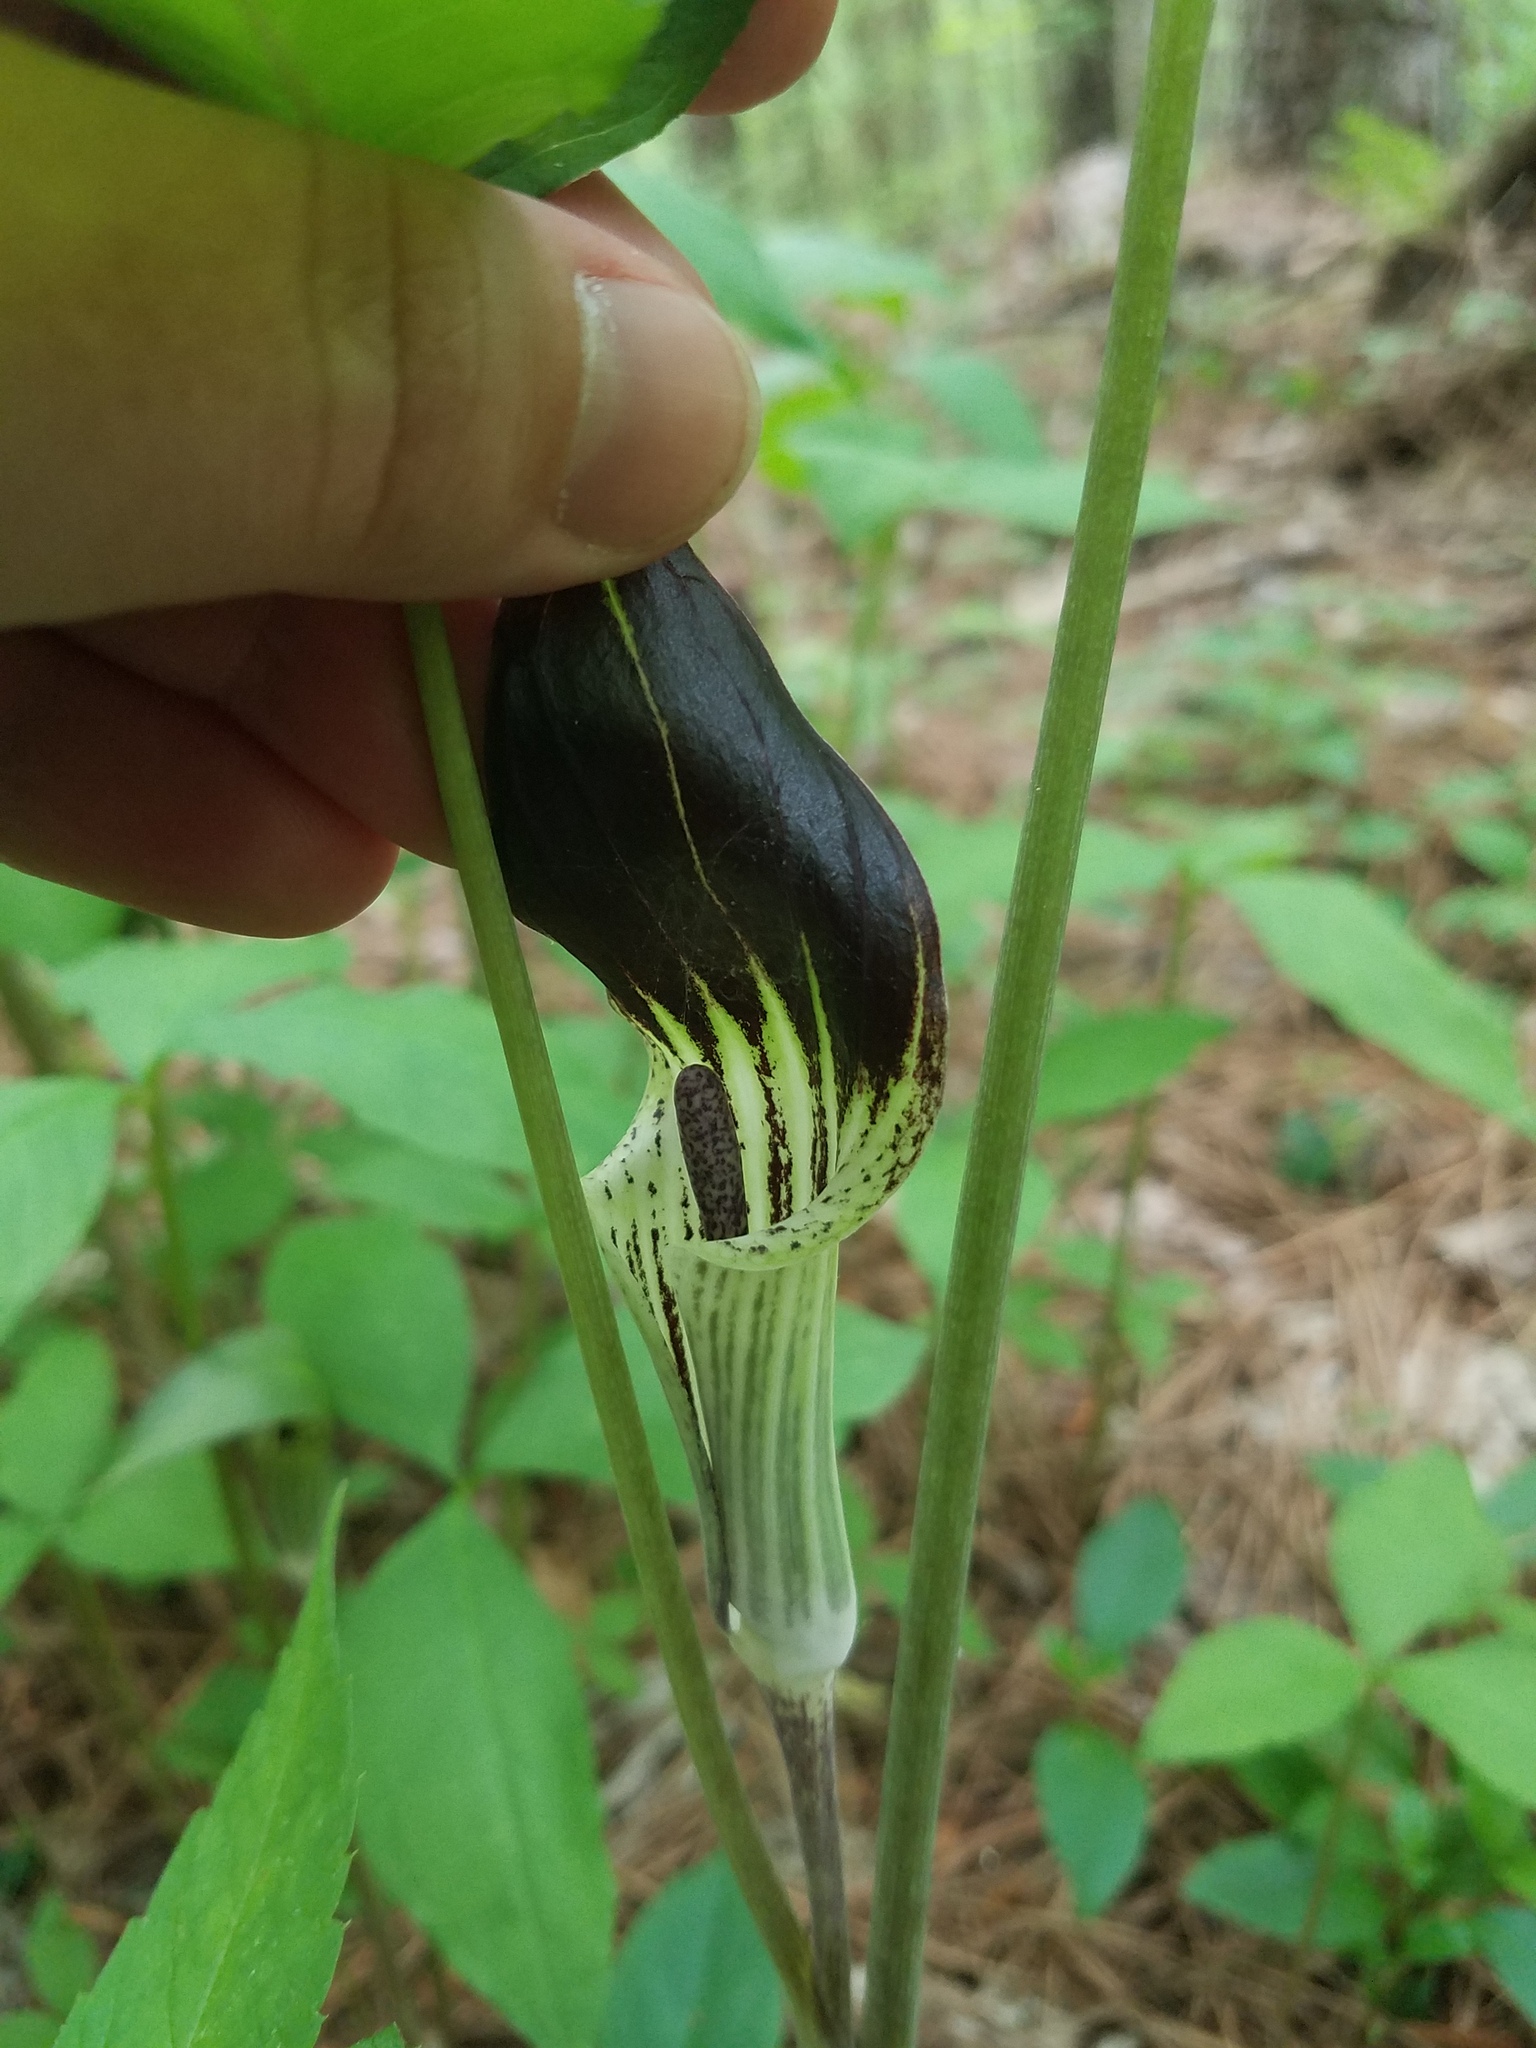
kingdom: Plantae
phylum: Tracheophyta
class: Liliopsida
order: Alismatales
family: Araceae
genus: Arisaema
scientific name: Arisaema pusillum
